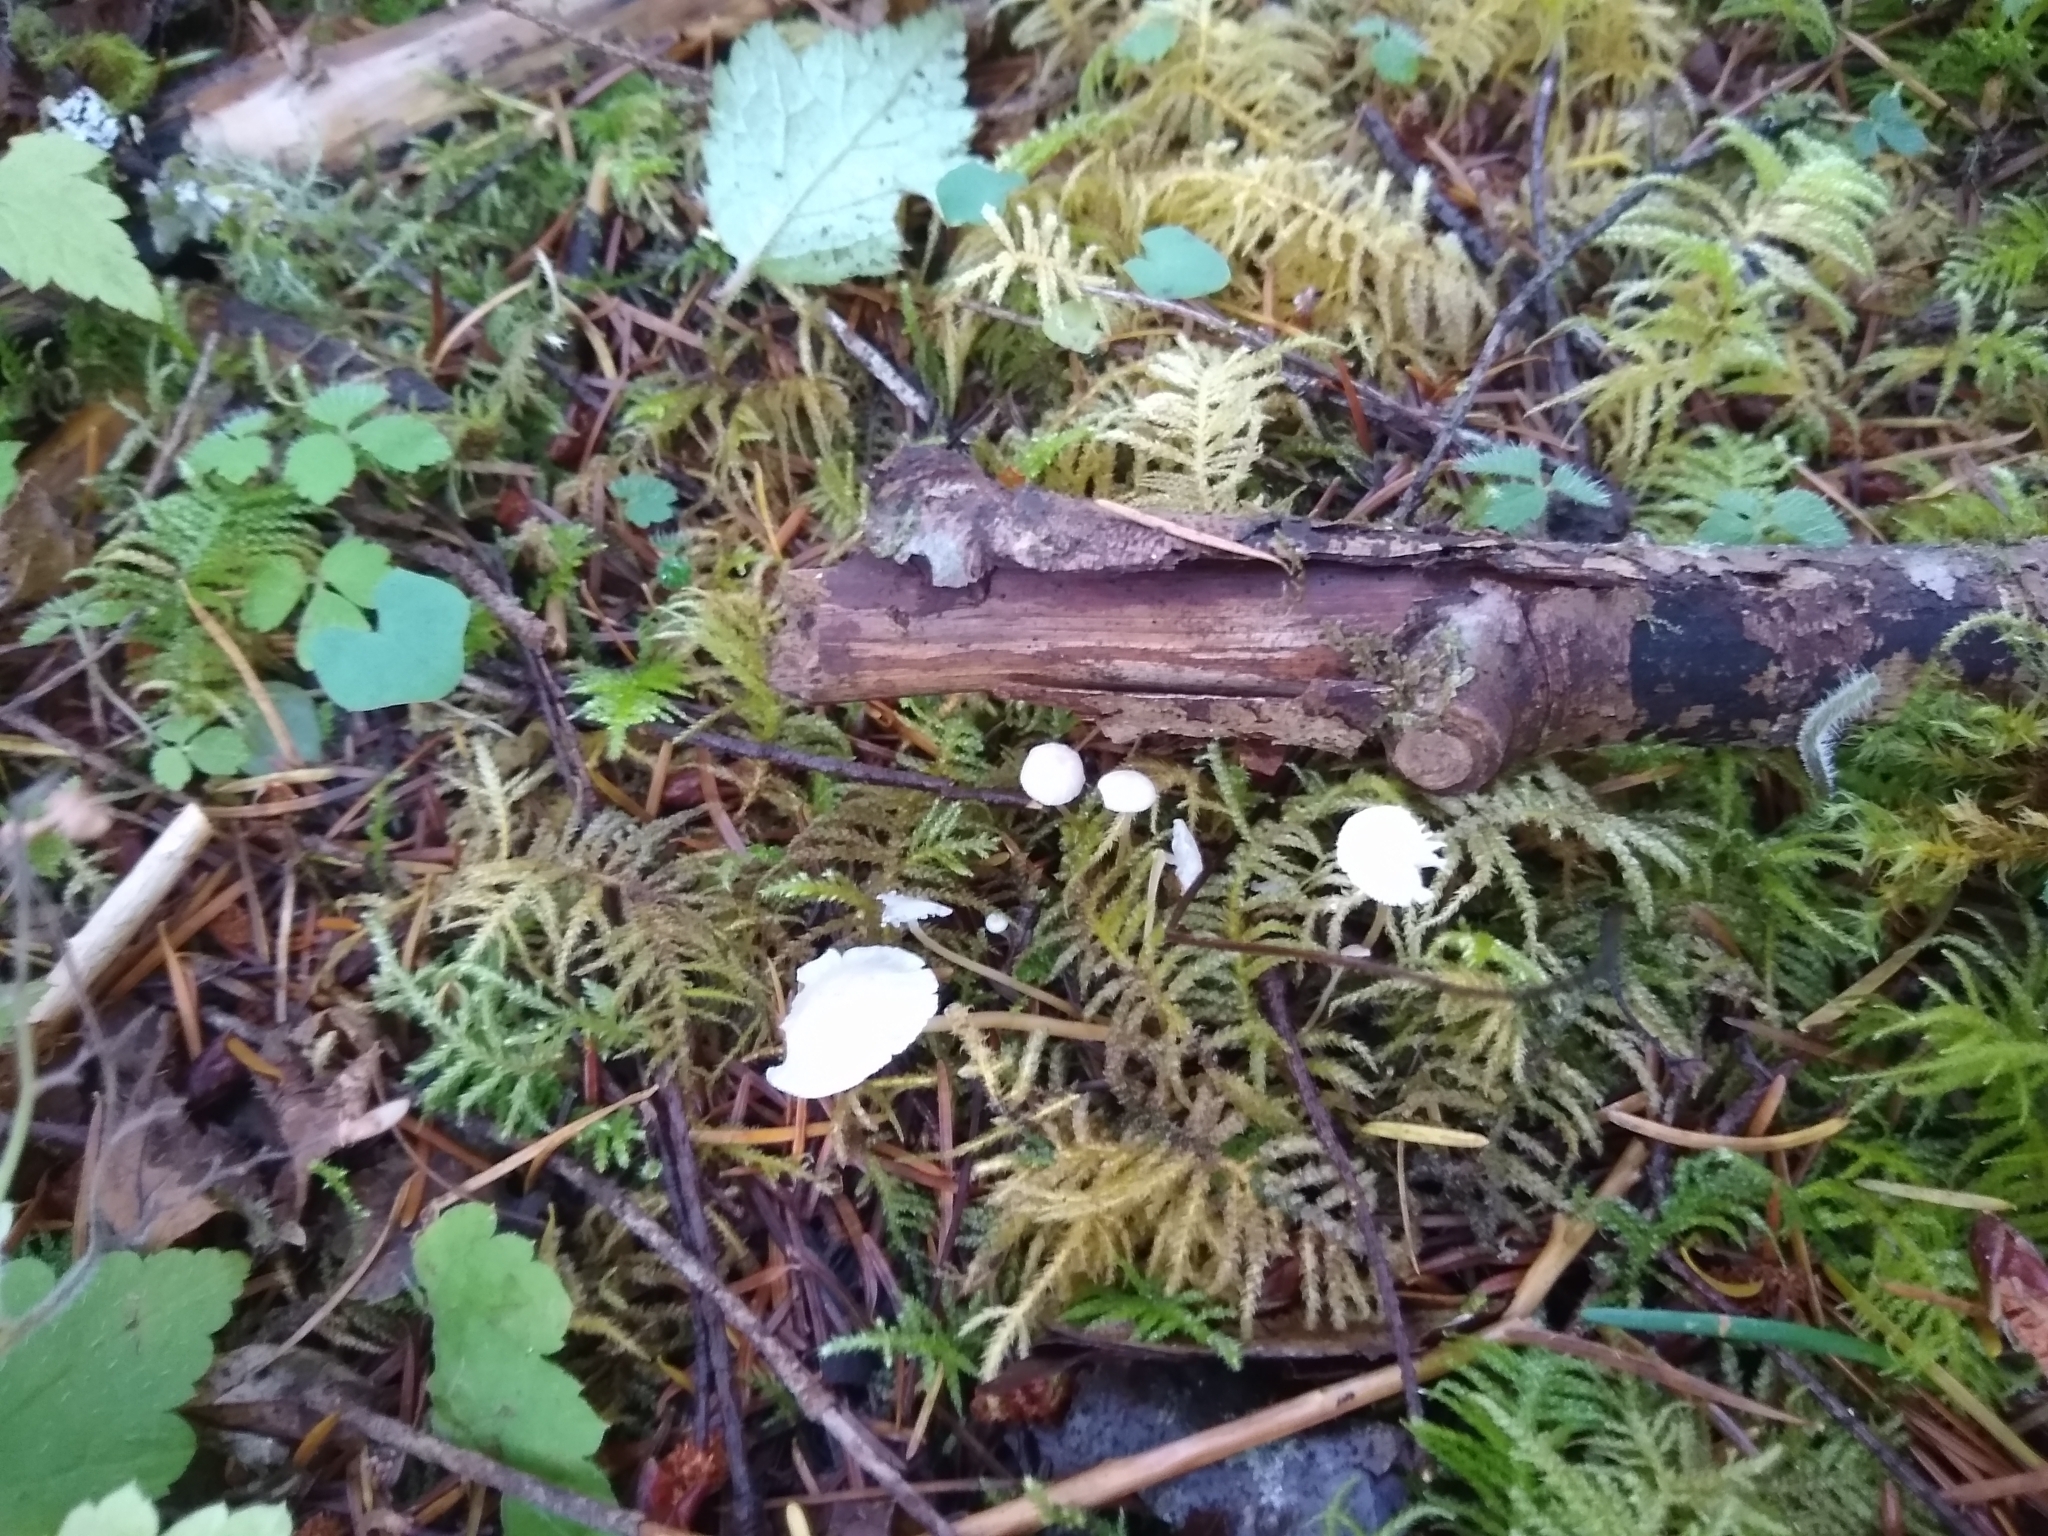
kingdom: Fungi
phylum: Basidiomycota
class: Agaricomycetes
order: Agaricales
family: Physalacriaceae
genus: Strobilurus
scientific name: Strobilurus trullisatus
